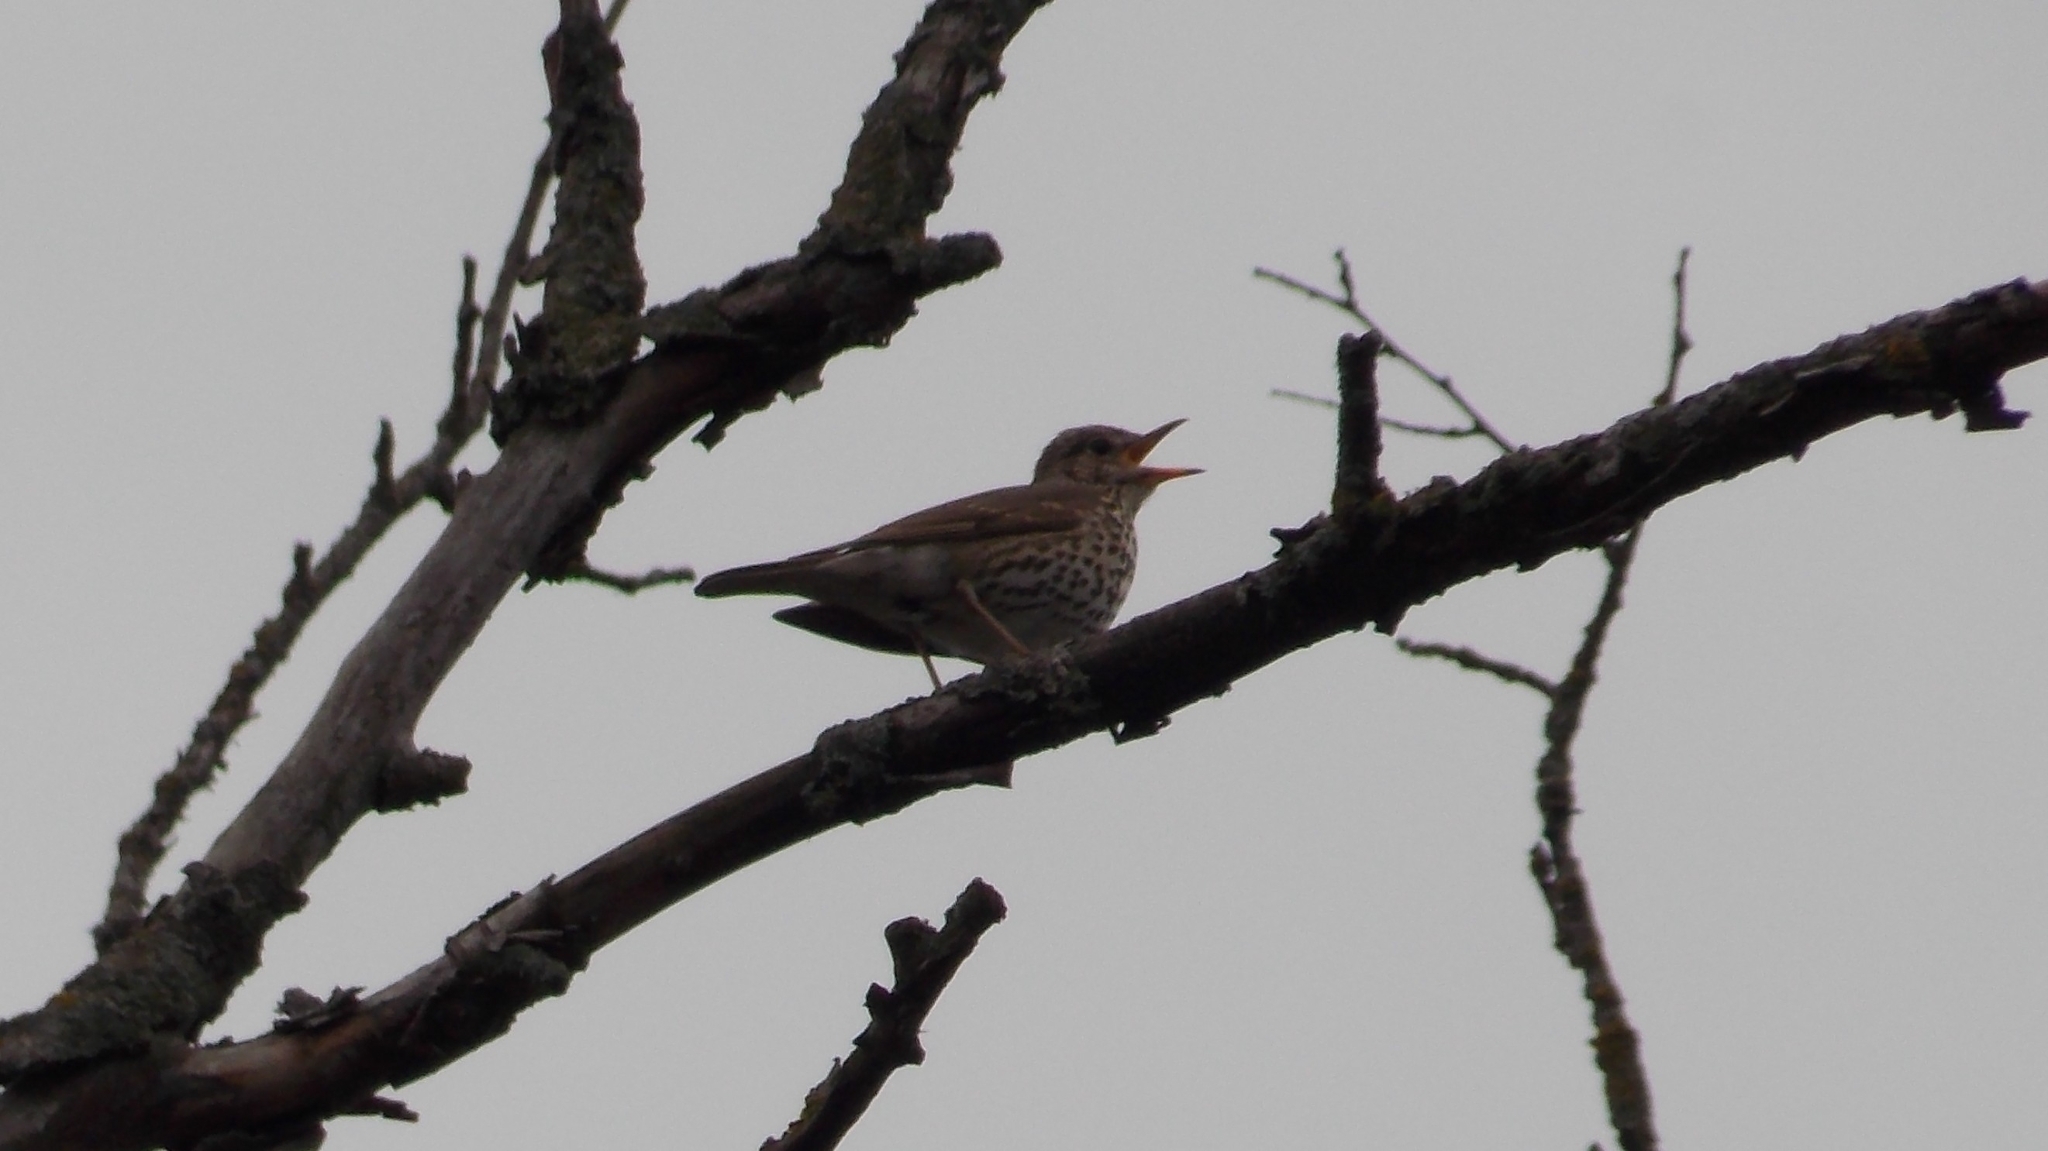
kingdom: Animalia
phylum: Chordata
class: Aves
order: Passeriformes
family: Turdidae
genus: Turdus
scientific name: Turdus philomelos
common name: Song thrush
